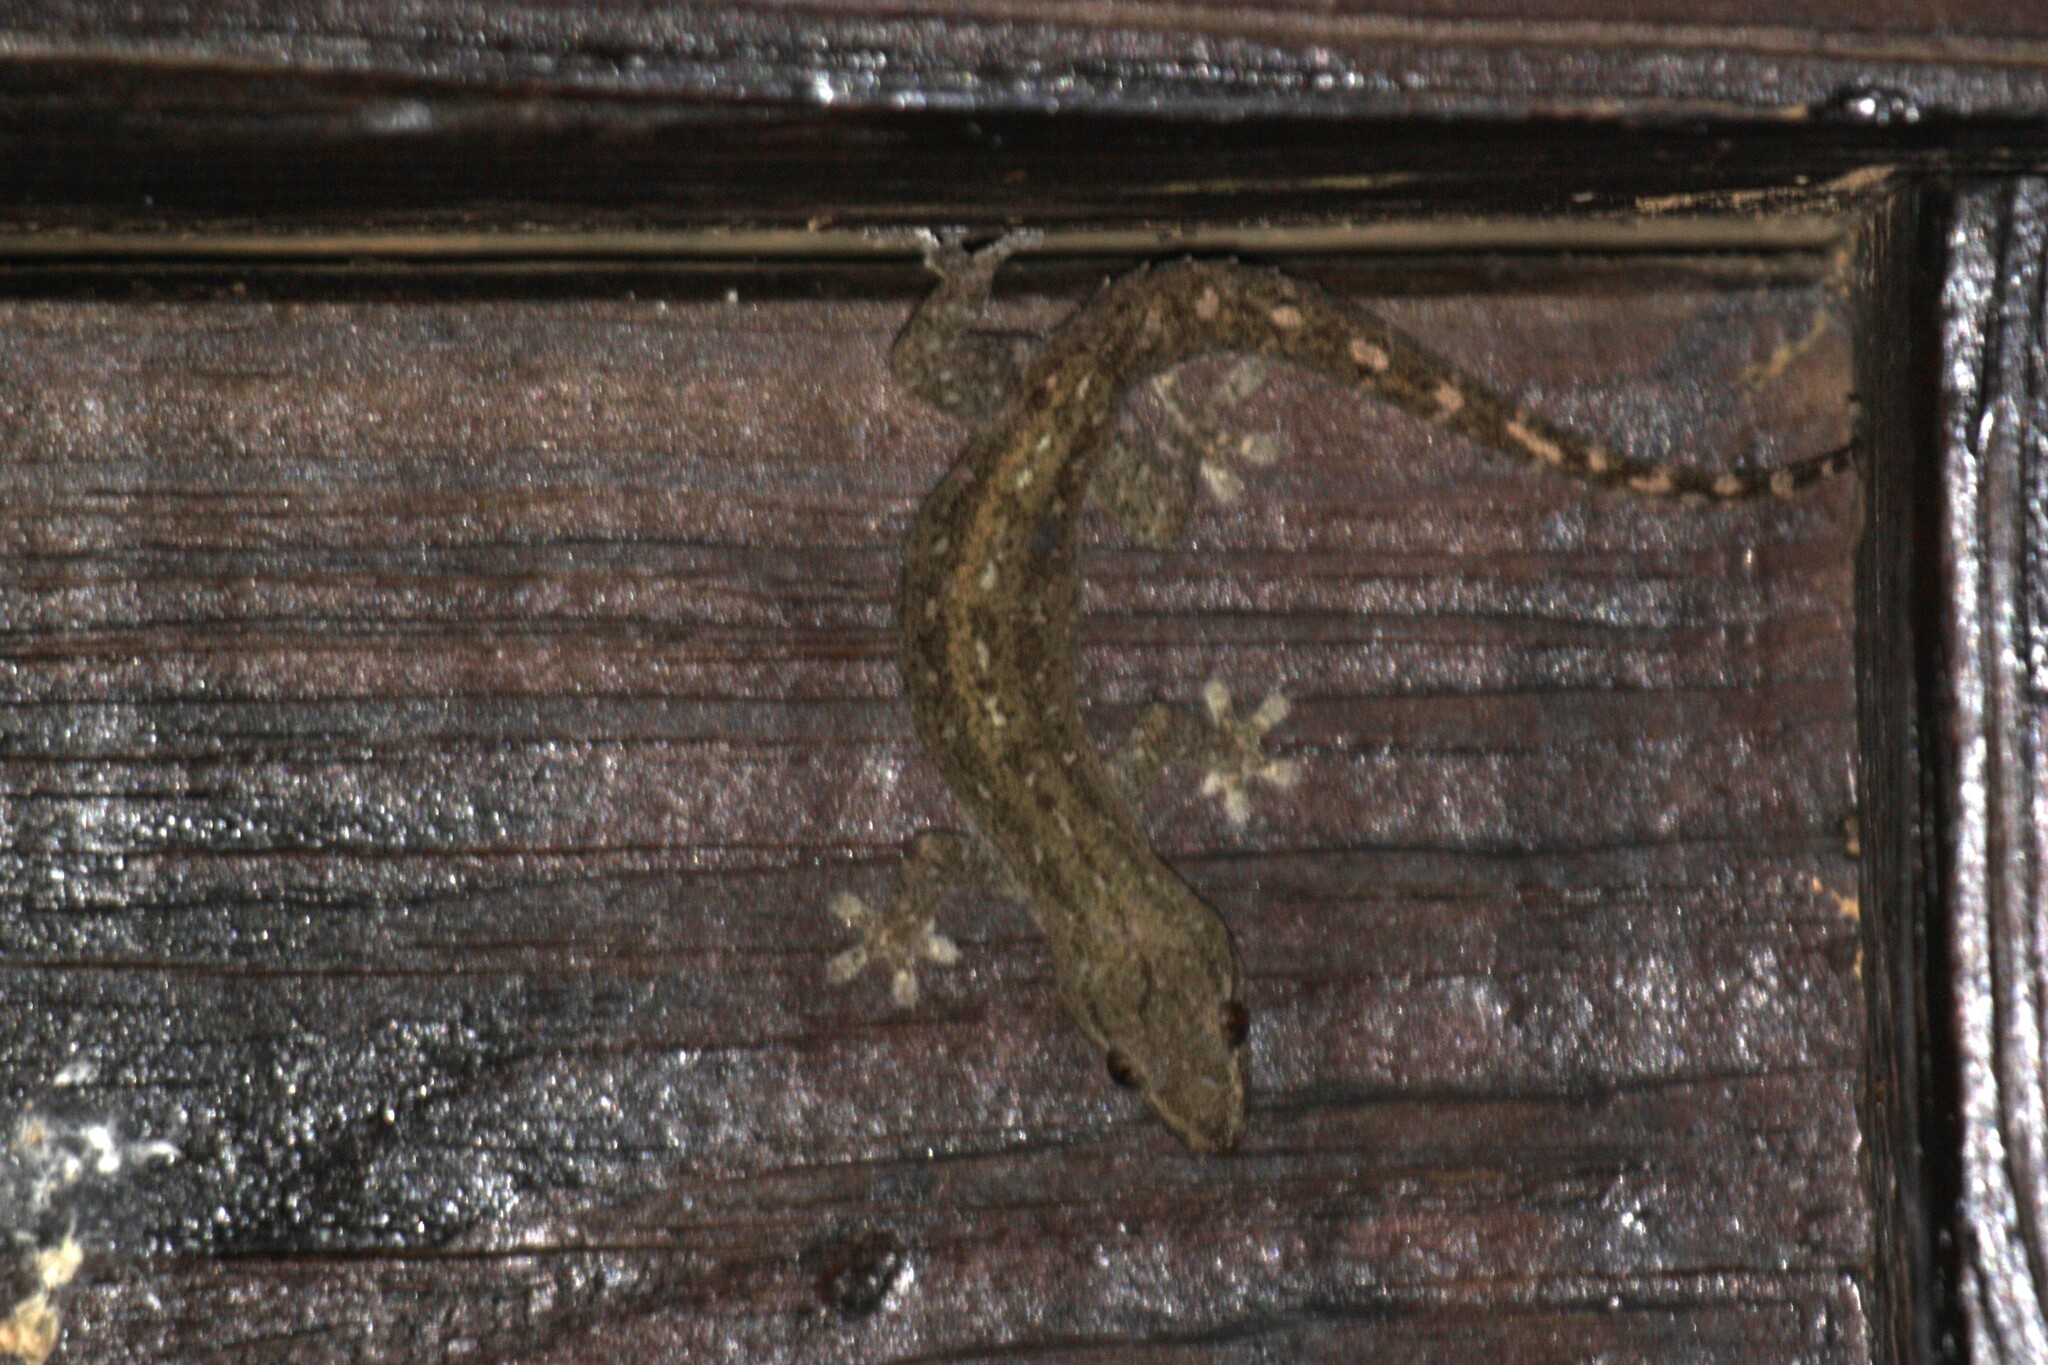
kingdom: Animalia
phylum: Chordata
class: Squamata
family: Gekkonidae
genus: Hemidactylus
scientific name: Hemidactylus frenatus
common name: Common house gecko
